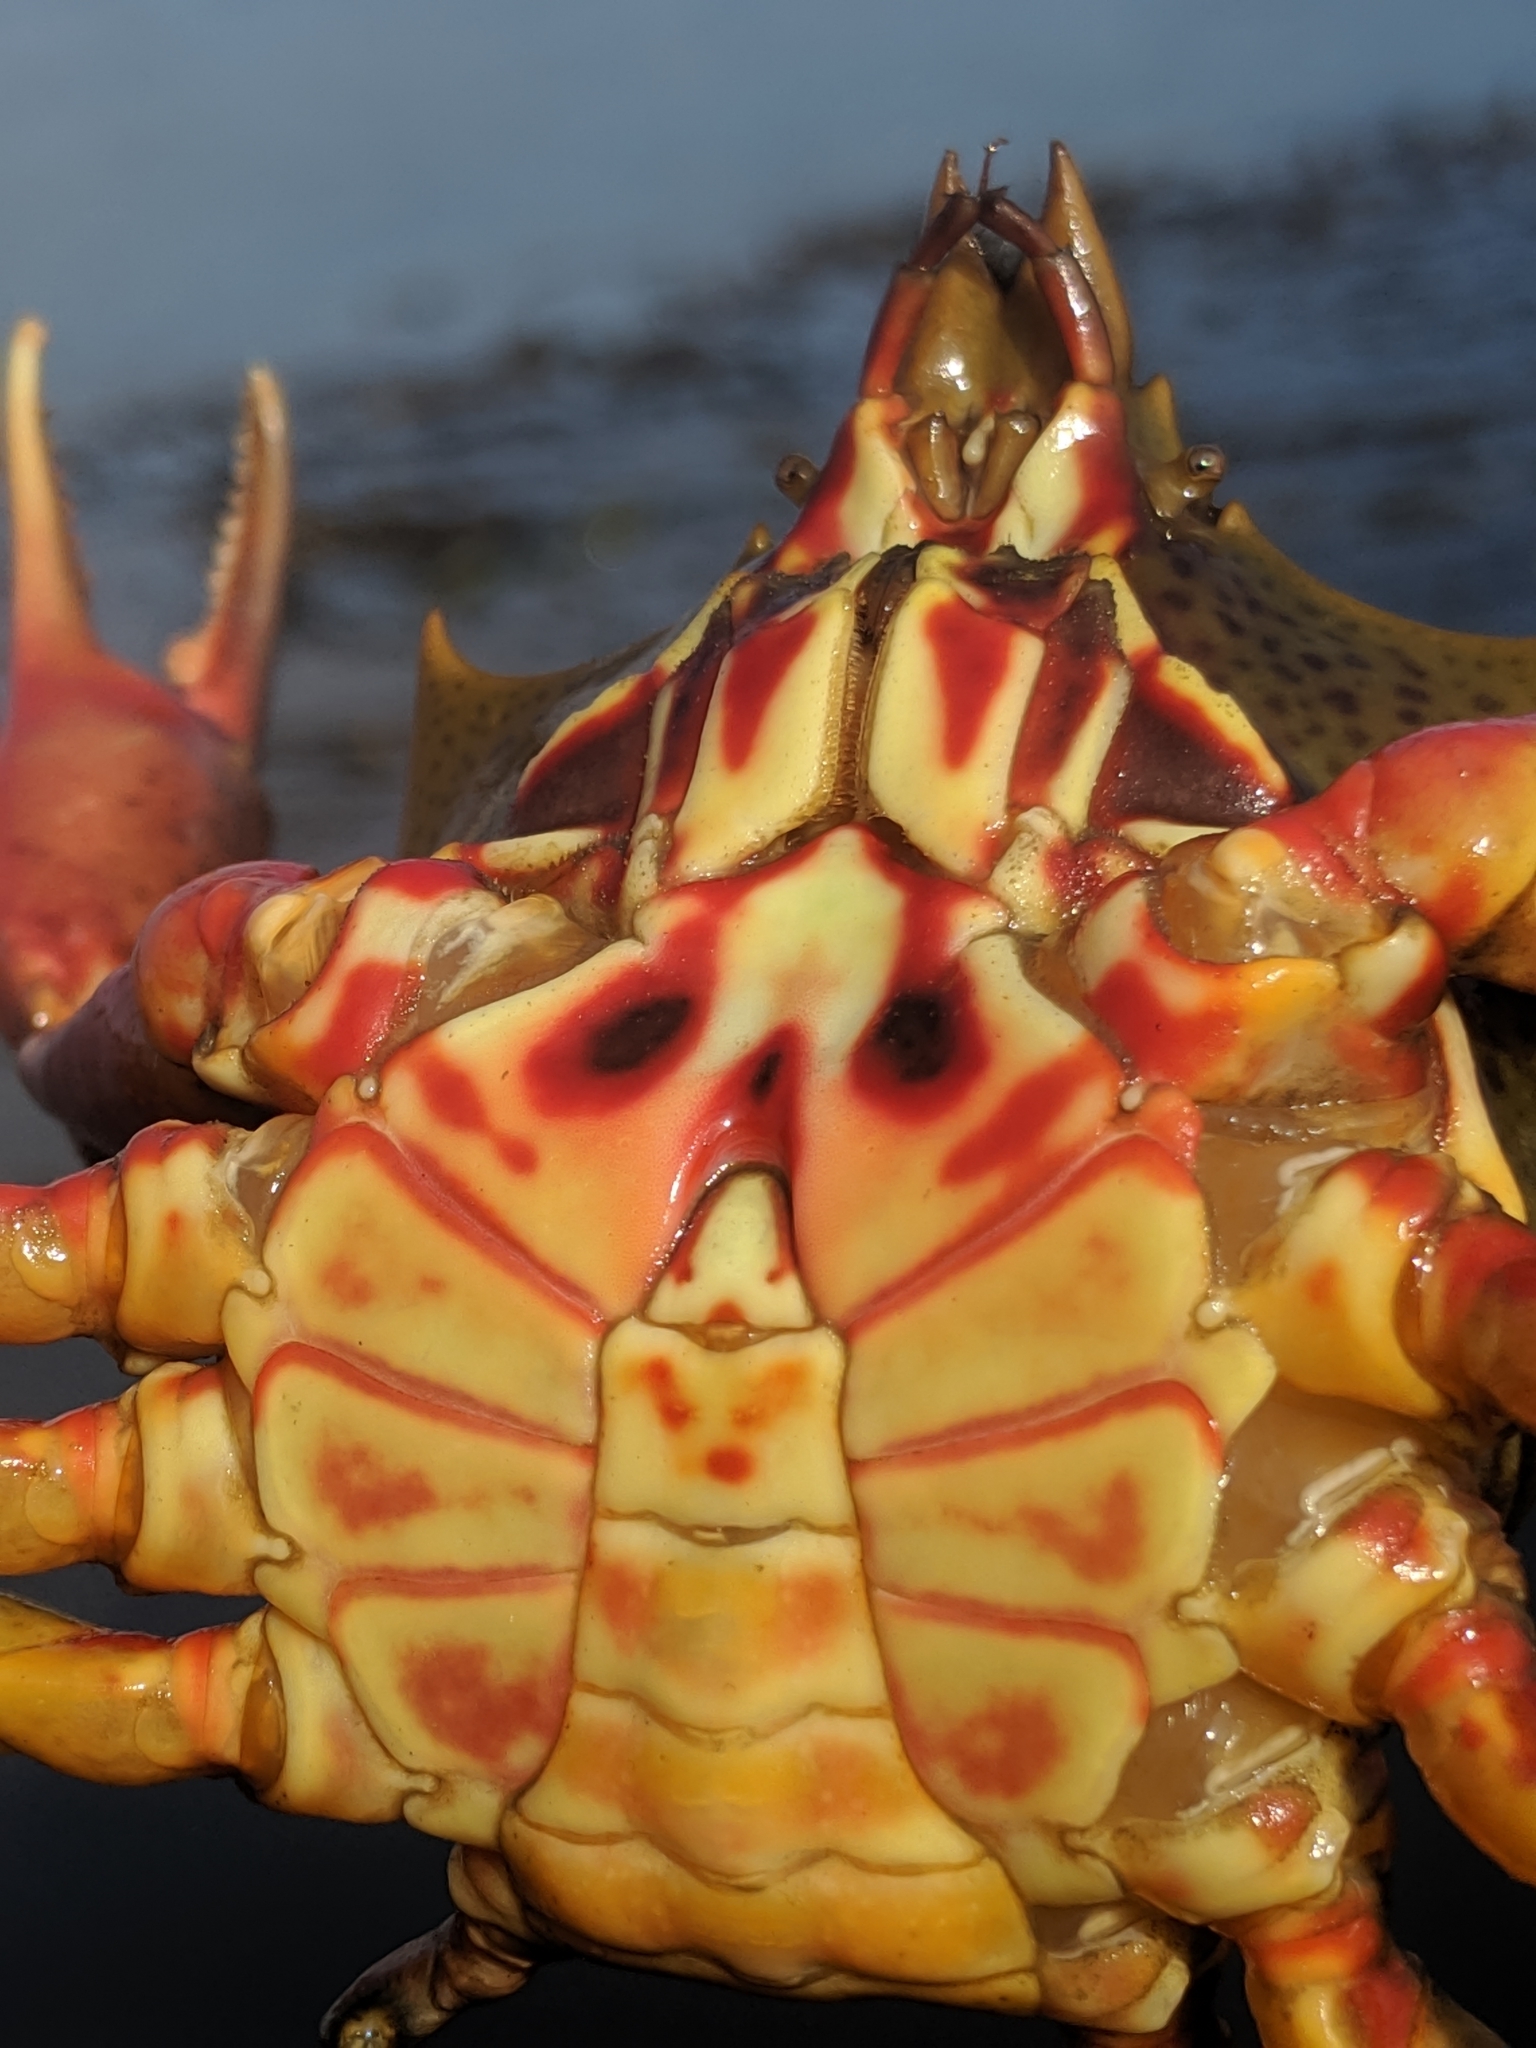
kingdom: Animalia
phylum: Arthropoda
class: Malacostraca
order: Decapoda
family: Epialtidae
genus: Pugettia
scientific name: Pugettia producta
